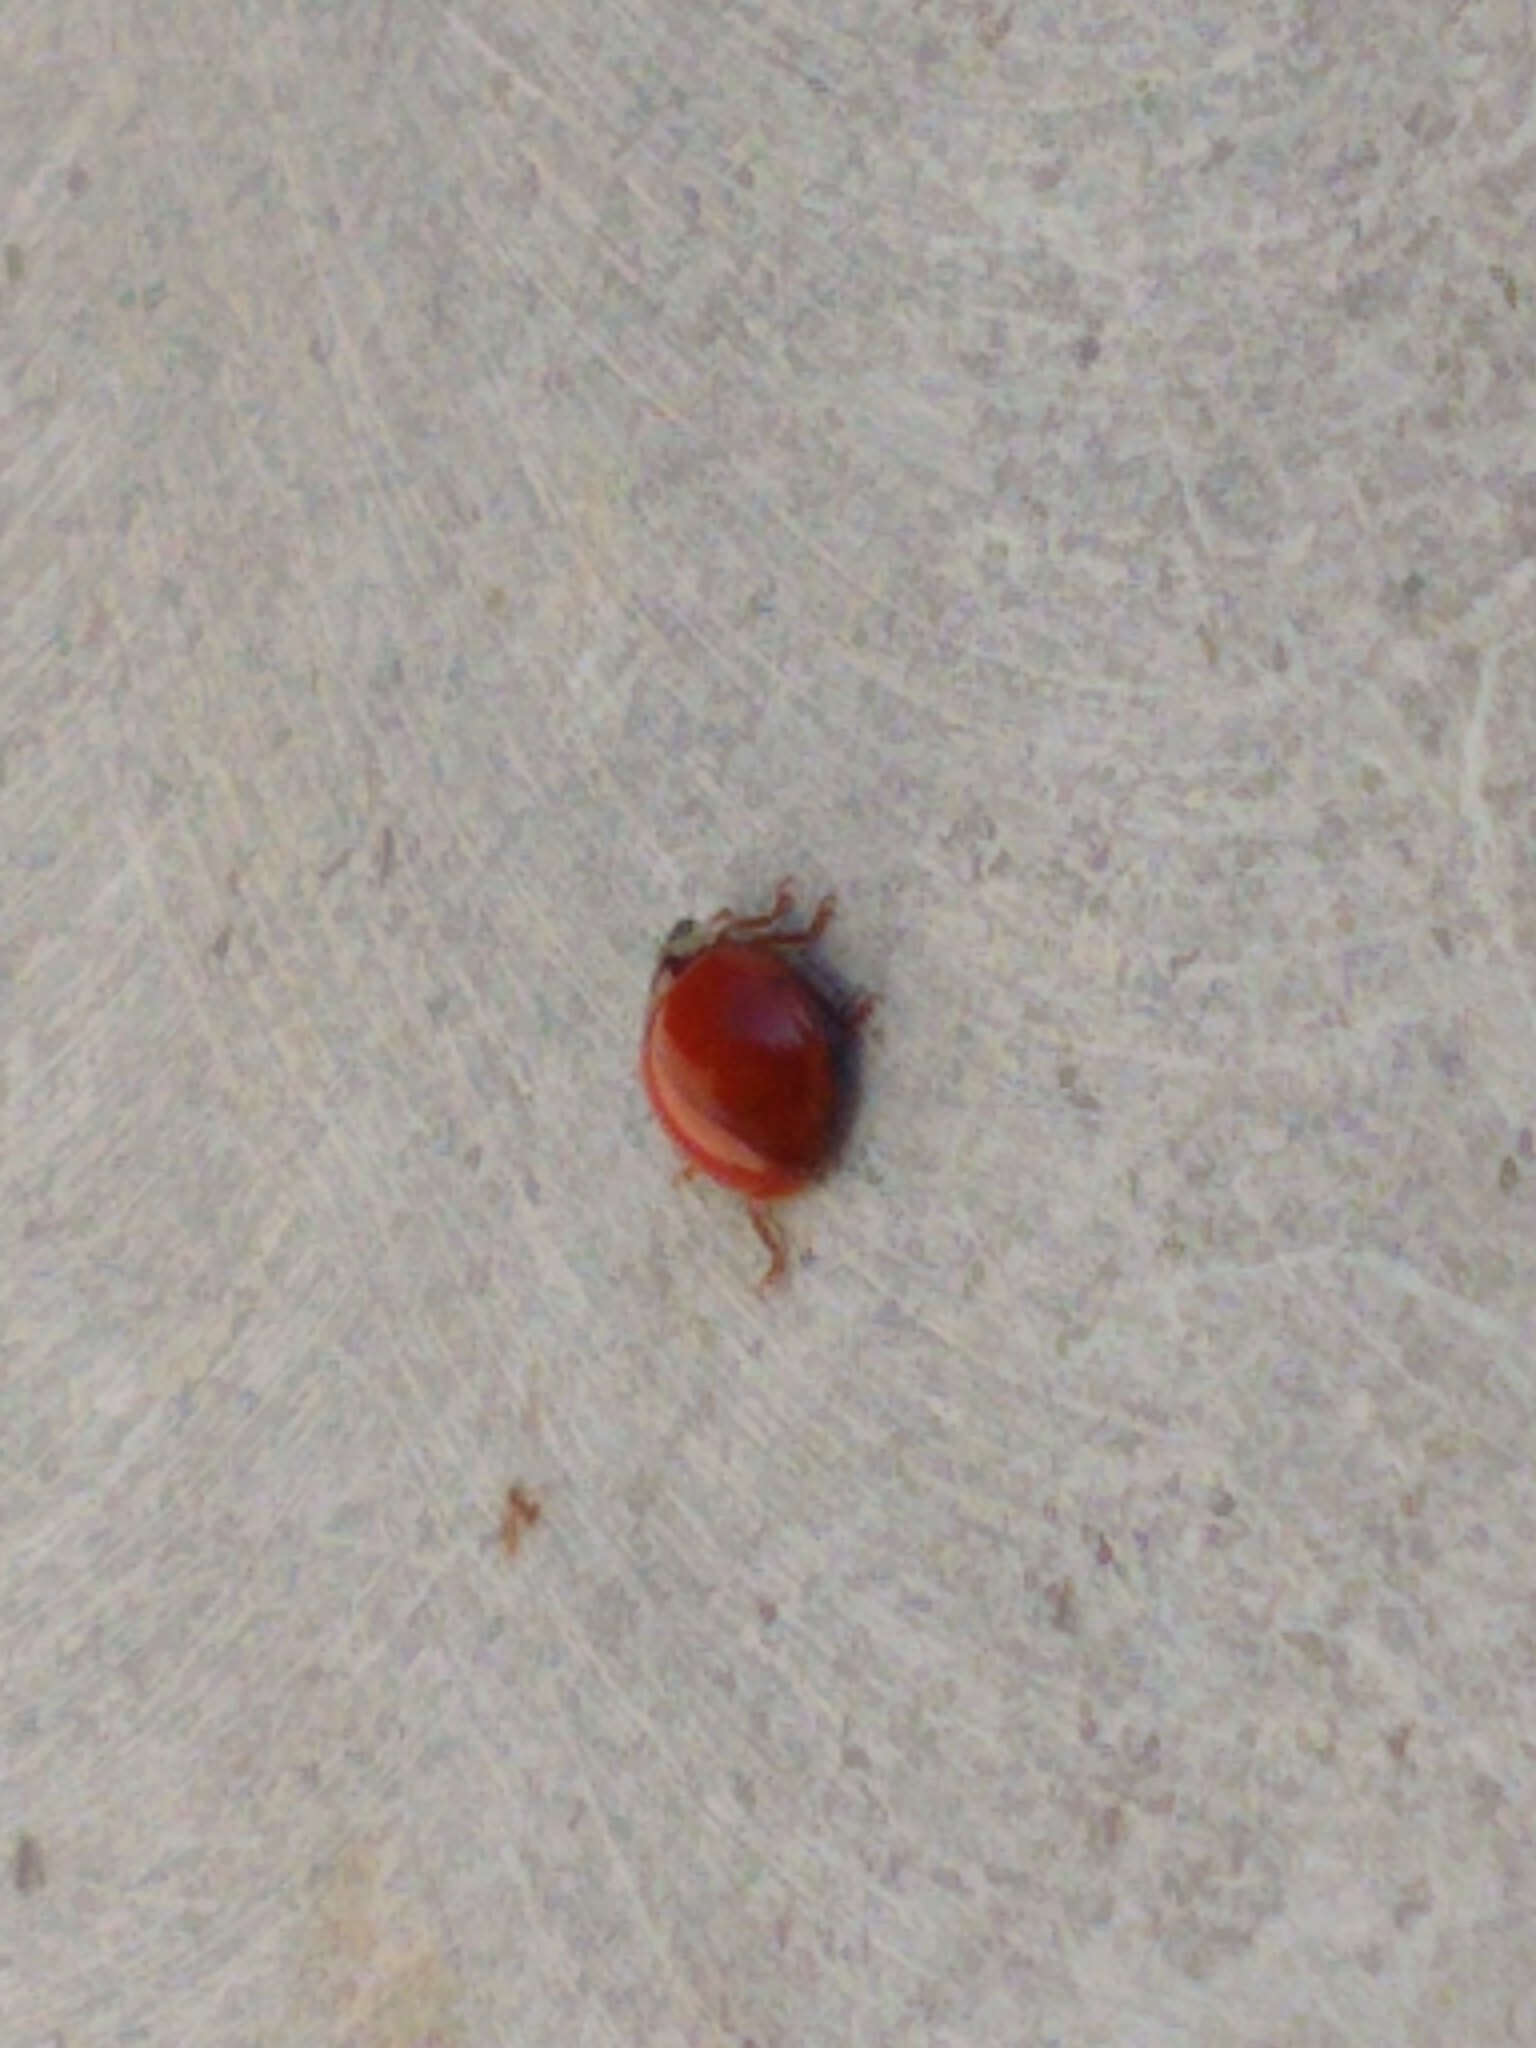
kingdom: Animalia
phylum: Arthropoda
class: Insecta
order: Coleoptera
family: Coccinellidae
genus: Harmonia
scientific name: Harmonia axyridis
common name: Harlequin ladybird
